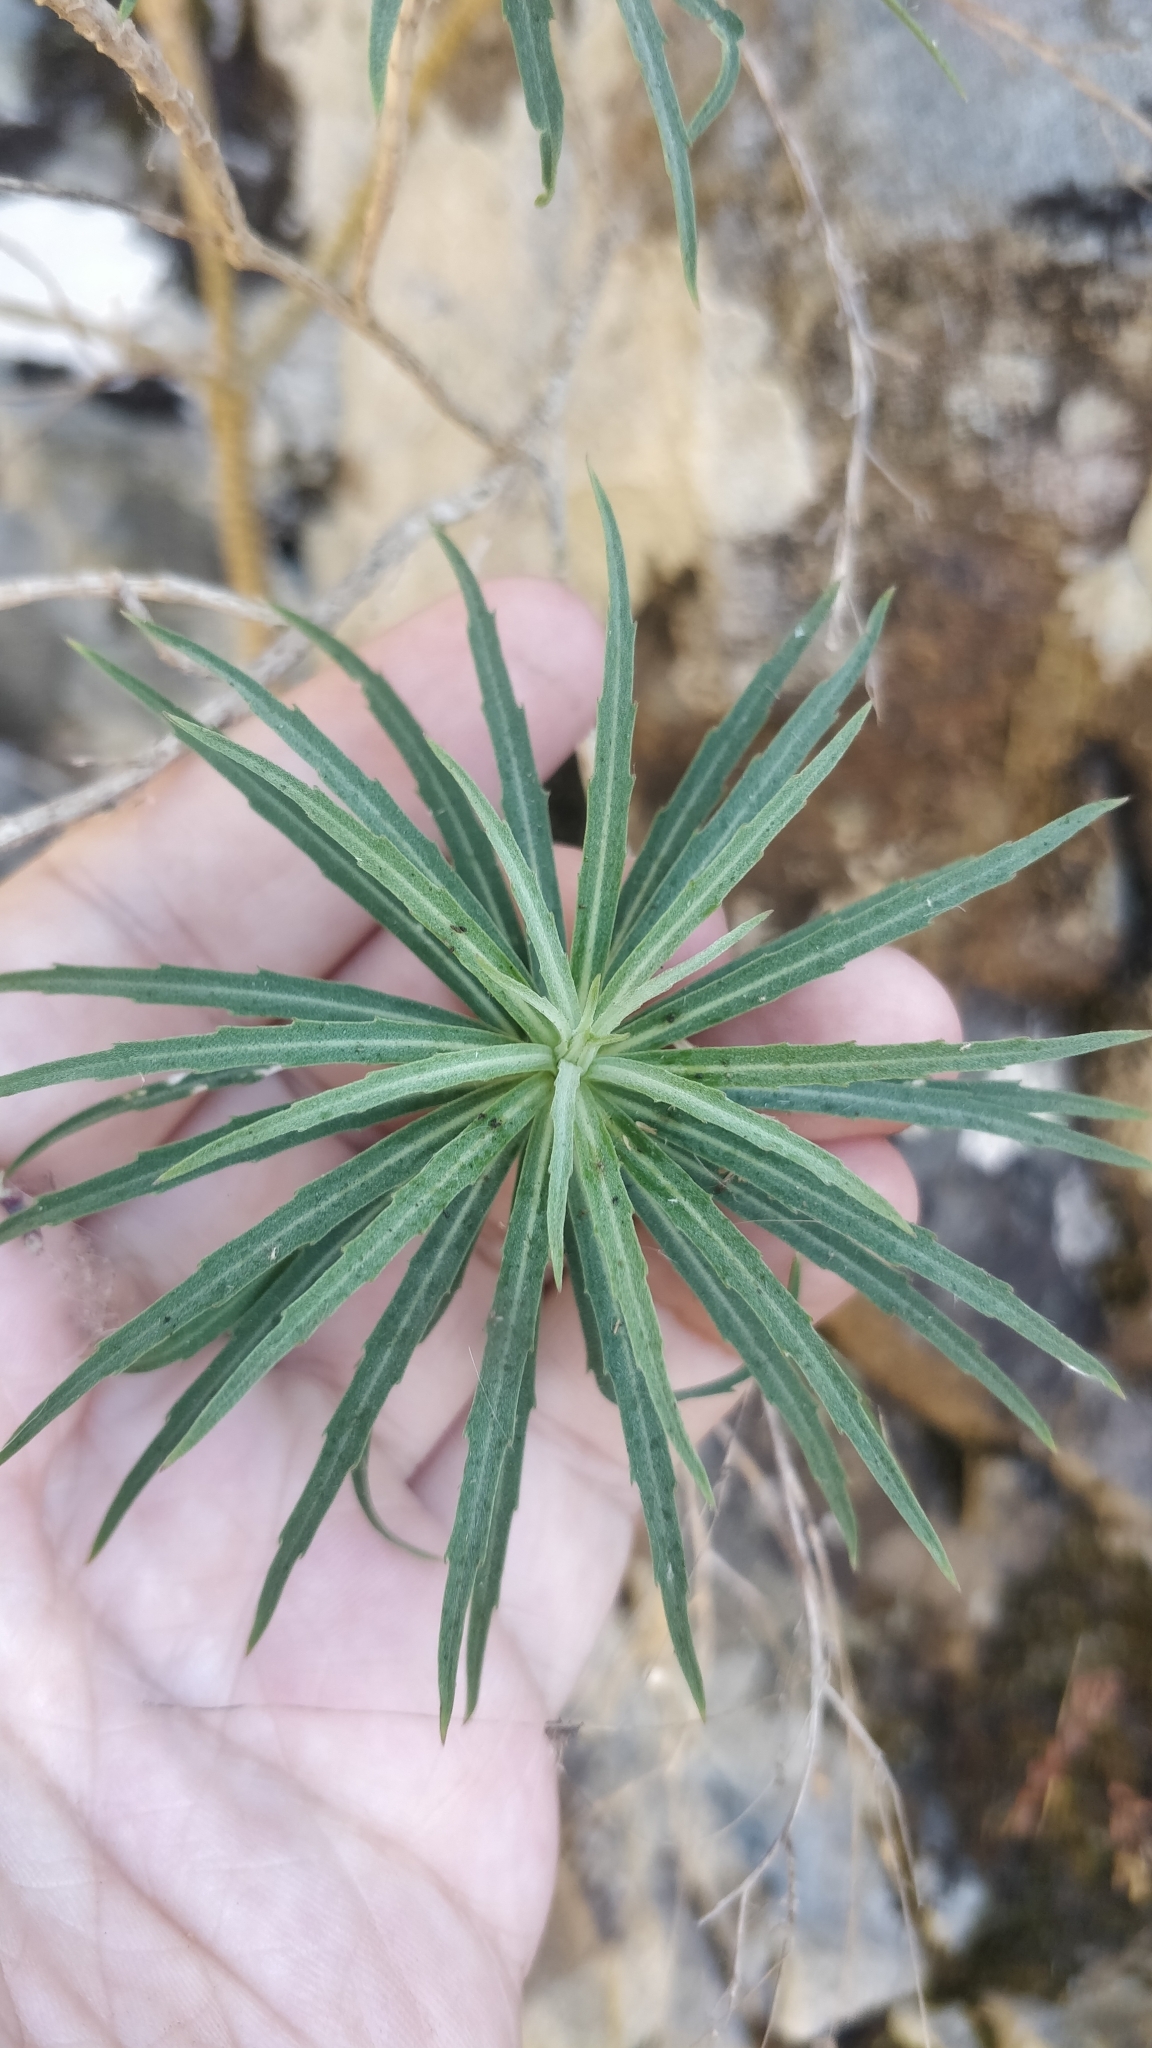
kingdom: Plantae
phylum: Tracheophyta
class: Magnoliopsida
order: Brassicales
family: Brassicaceae
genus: Erysimum
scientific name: Erysimum bicolor
